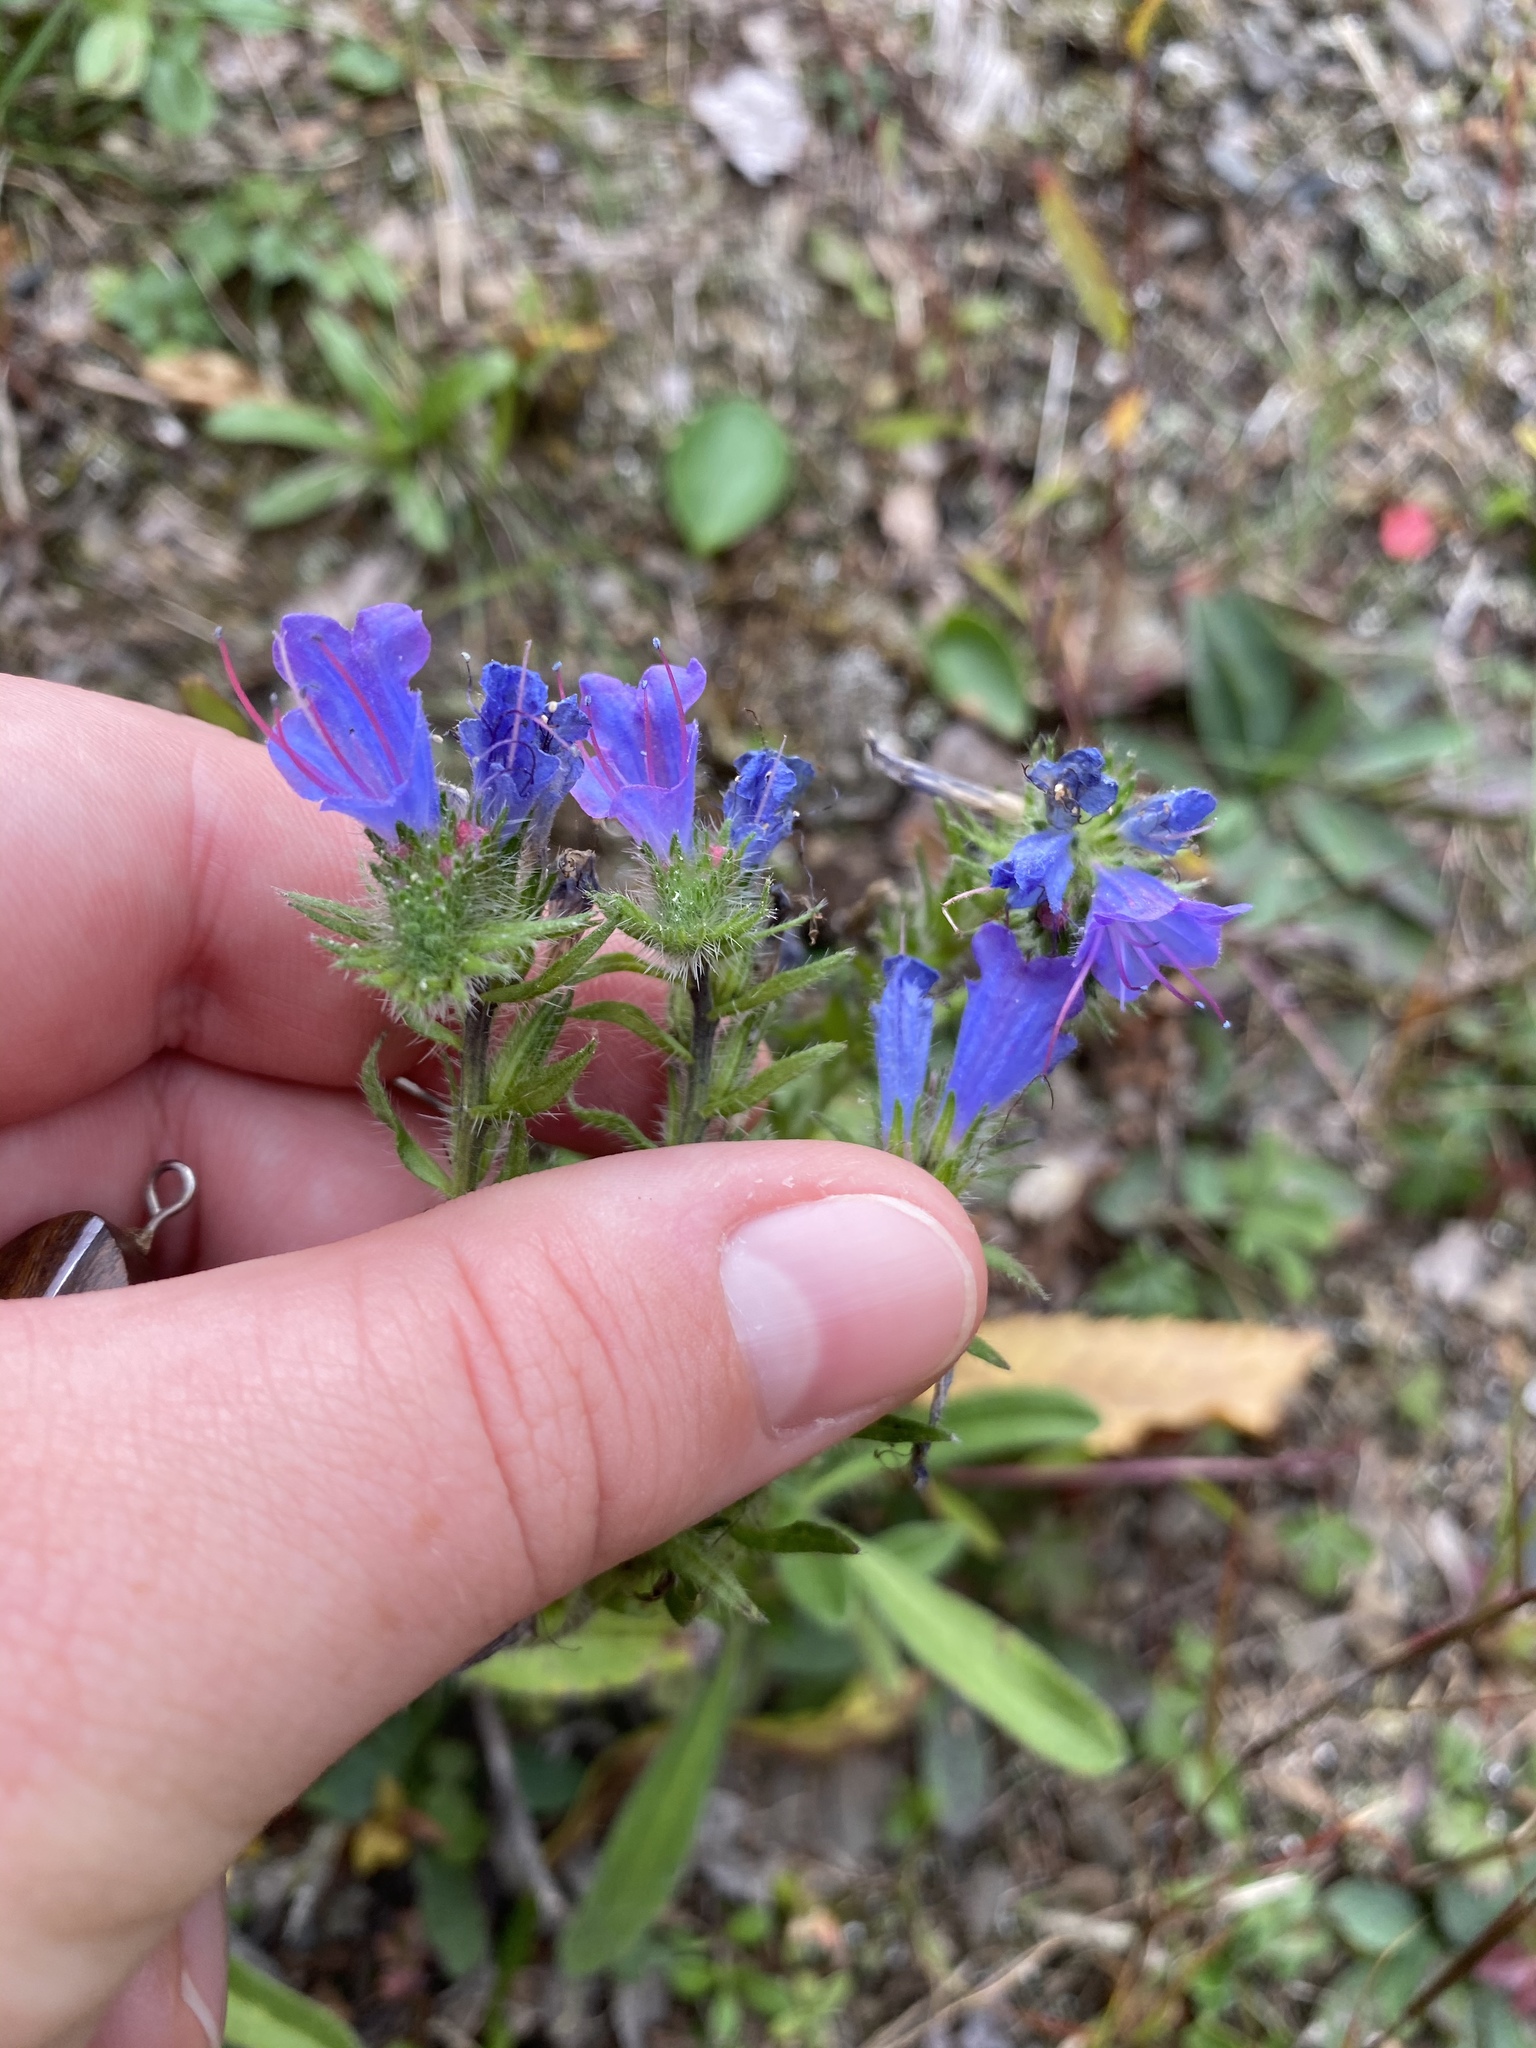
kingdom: Plantae
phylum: Tracheophyta
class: Magnoliopsida
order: Boraginales
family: Boraginaceae
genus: Echium
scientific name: Echium vulgare
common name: Common viper's bugloss
